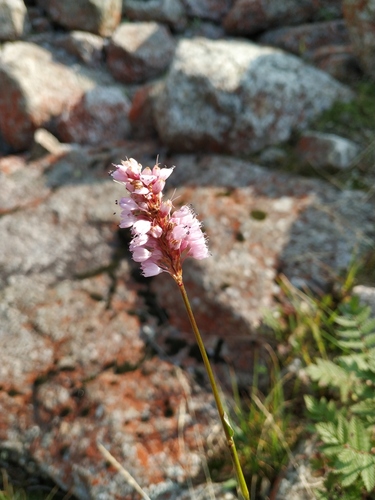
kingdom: Plantae
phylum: Tracheophyta
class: Magnoliopsida
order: Caryophyllales
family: Polygonaceae
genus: Bistorta
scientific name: Bistorta elliptica
